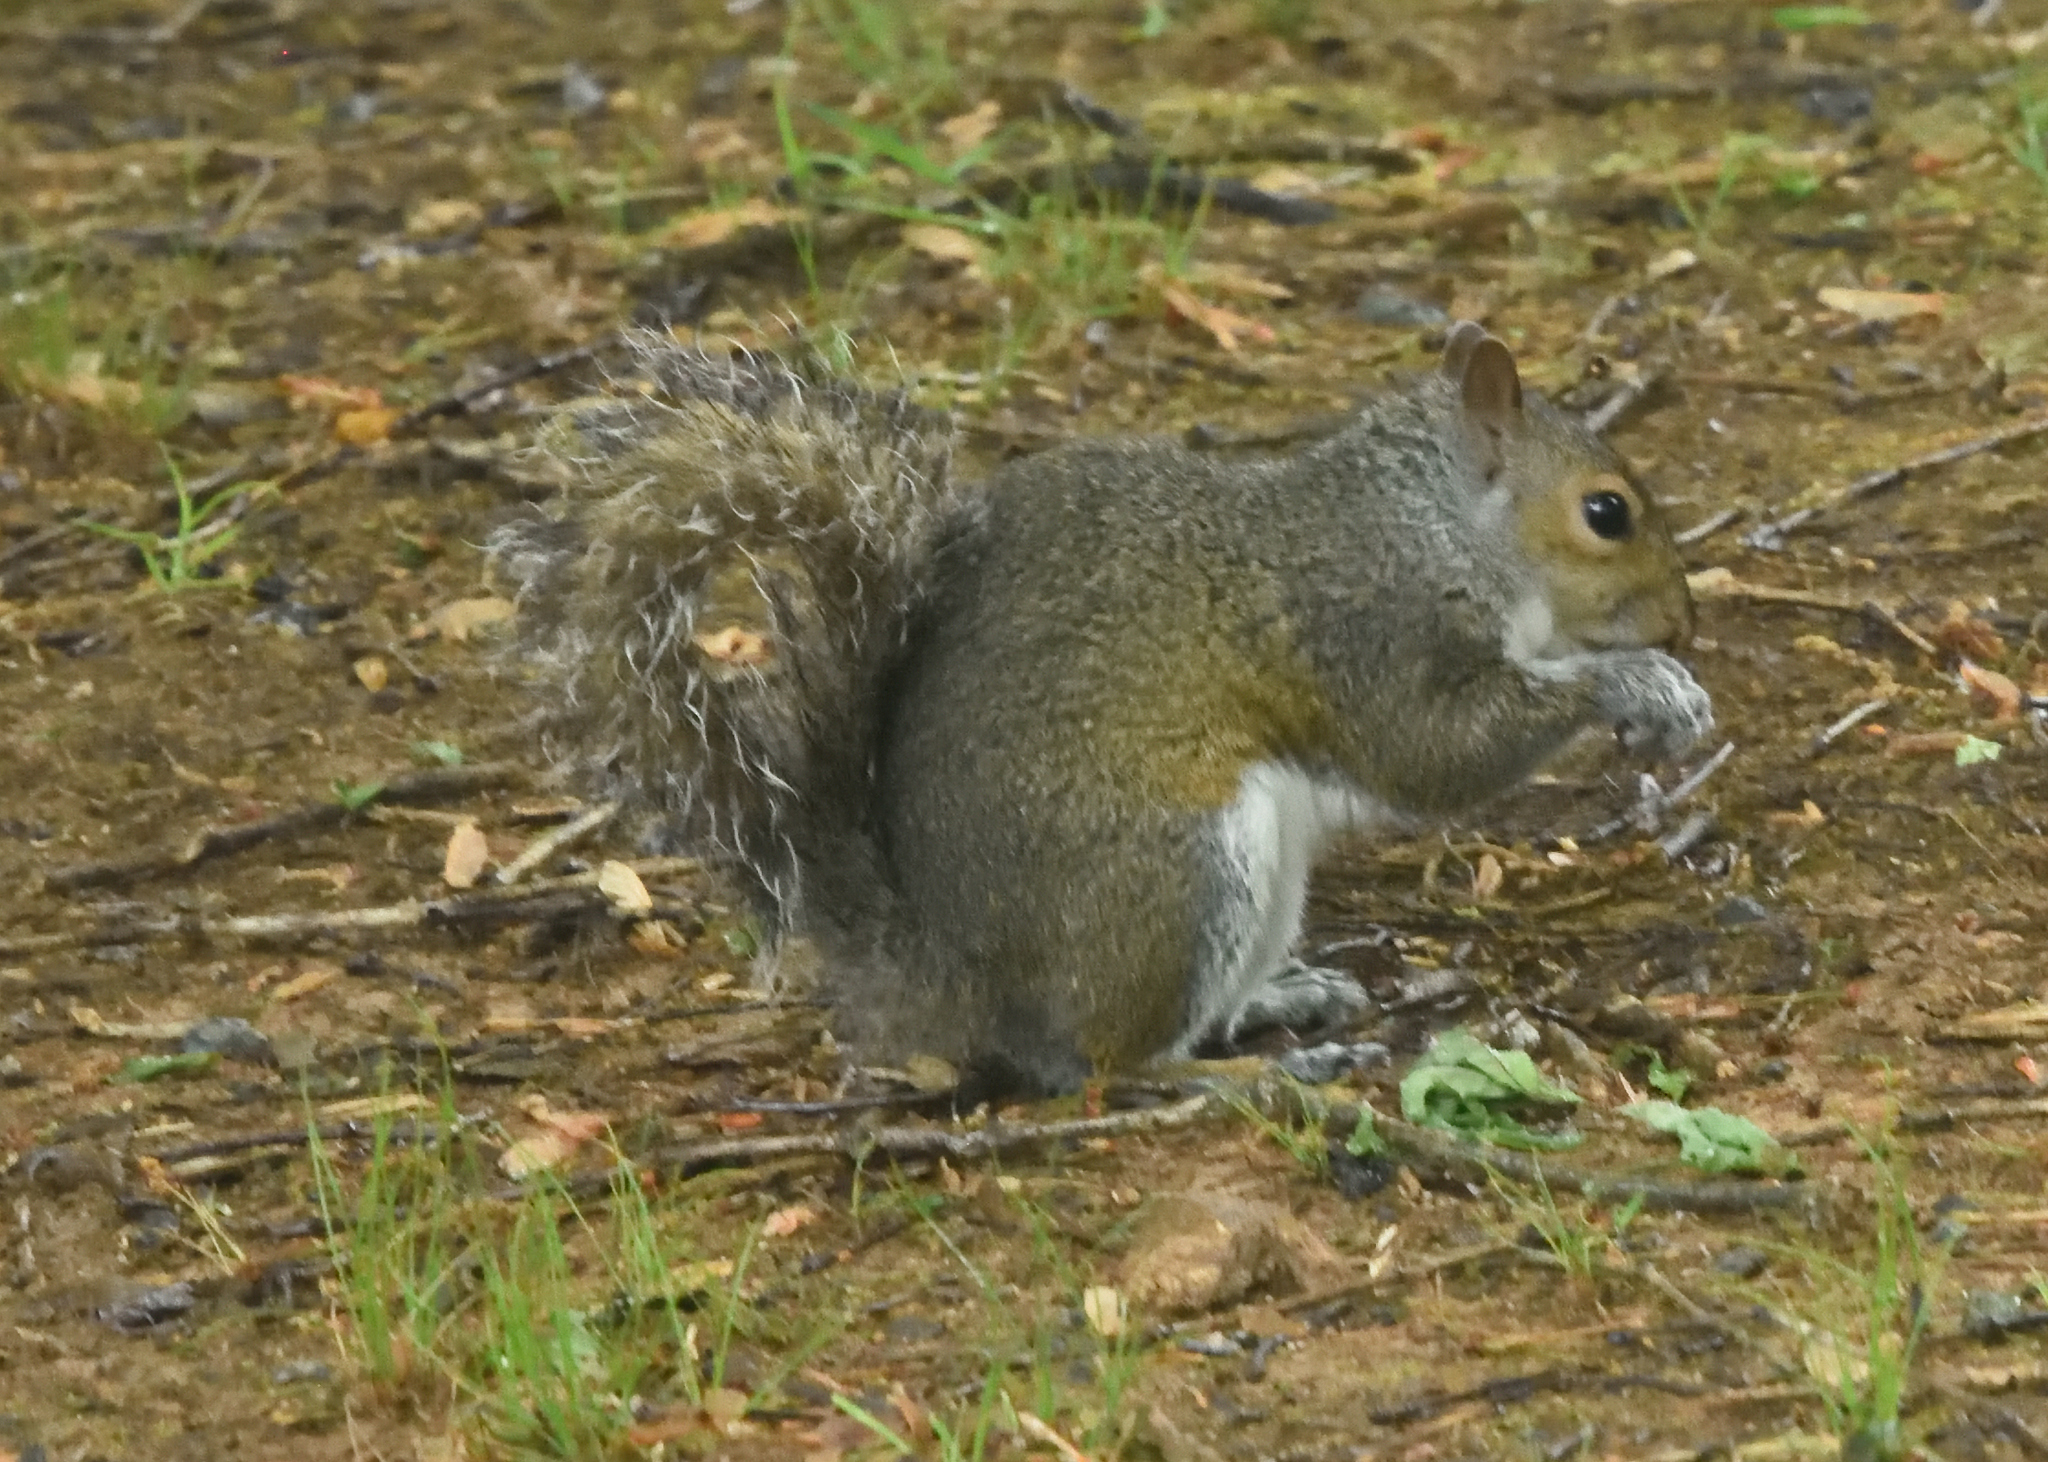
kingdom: Animalia
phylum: Chordata
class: Mammalia
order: Rodentia
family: Sciuridae
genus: Sciurus
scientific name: Sciurus carolinensis
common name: Eastern gray squirrel
